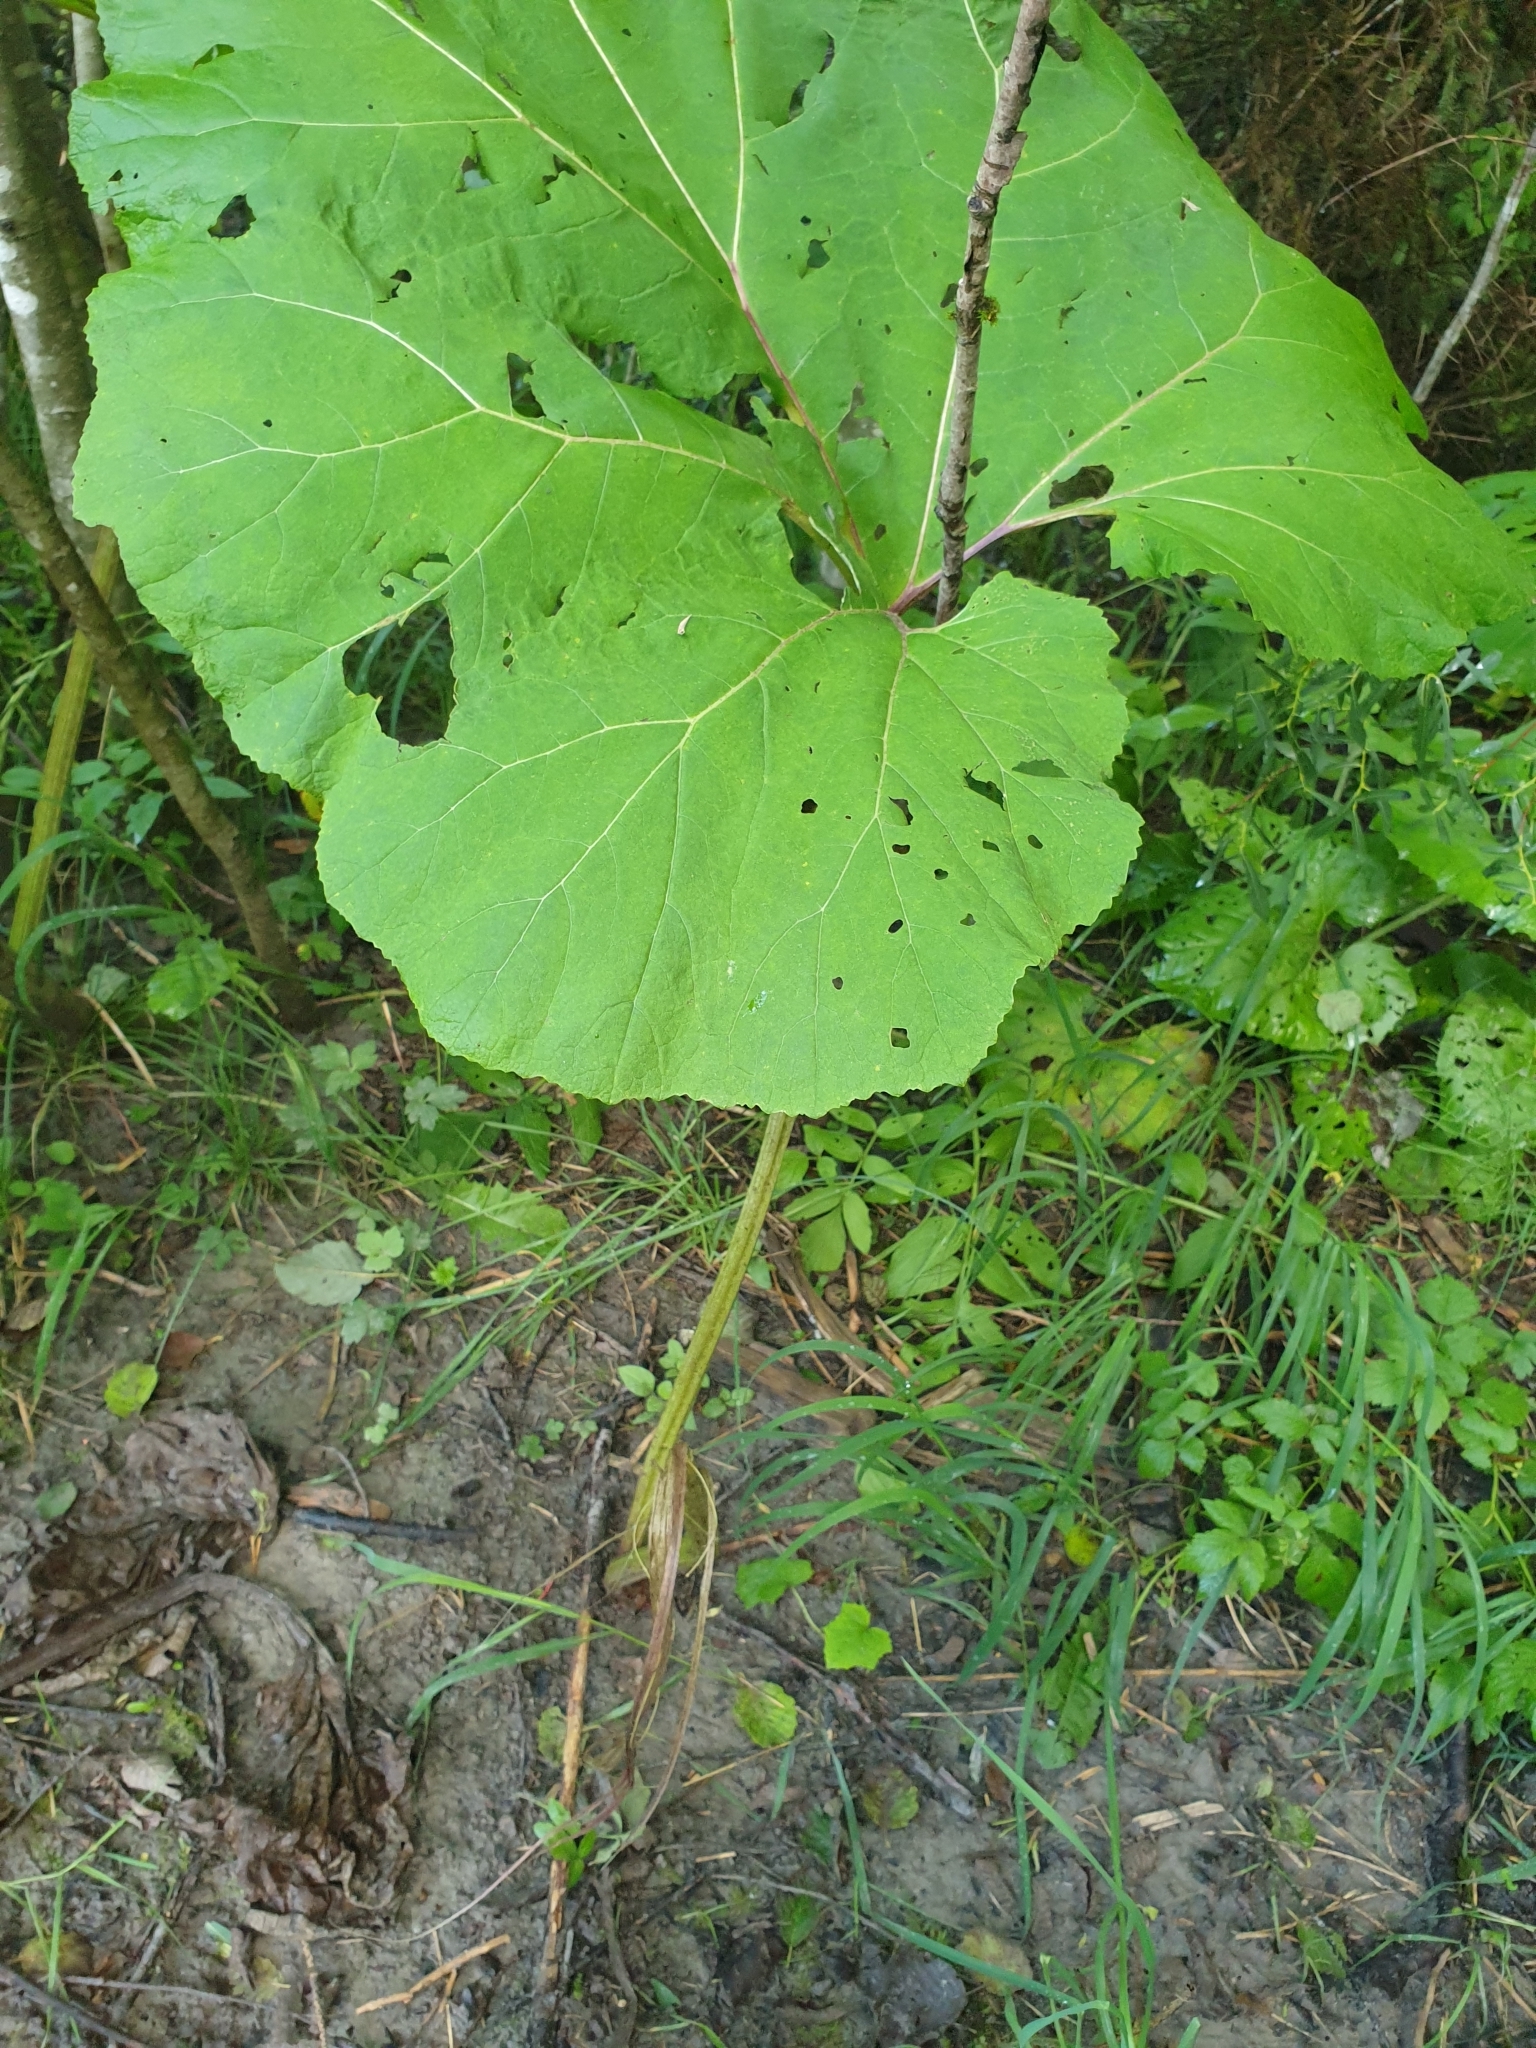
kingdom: Plantae
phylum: Tracheophyta
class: Magnoliopsida
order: Asterales
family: Asteraceae
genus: Petasites
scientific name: Petasites hybridus
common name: Butterbur
